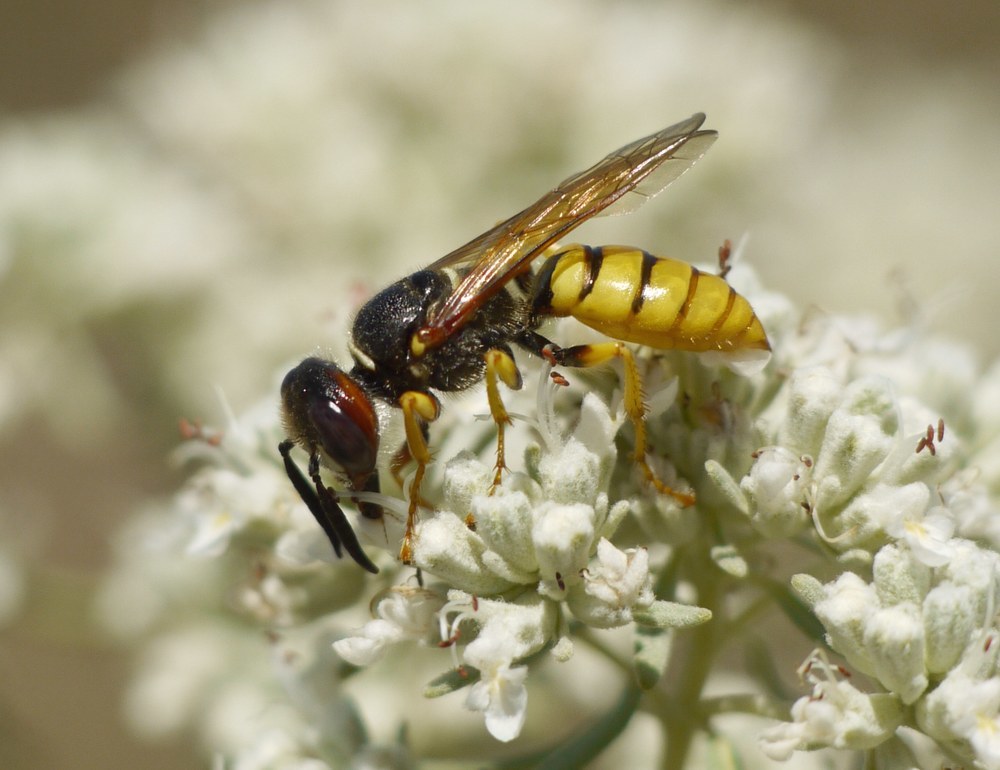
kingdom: Animalia
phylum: Arthropoda
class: Insecta
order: Hymenoptera
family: Crabronidae
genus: Philanthus
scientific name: Philanthus triangulum
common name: Bee wolf
